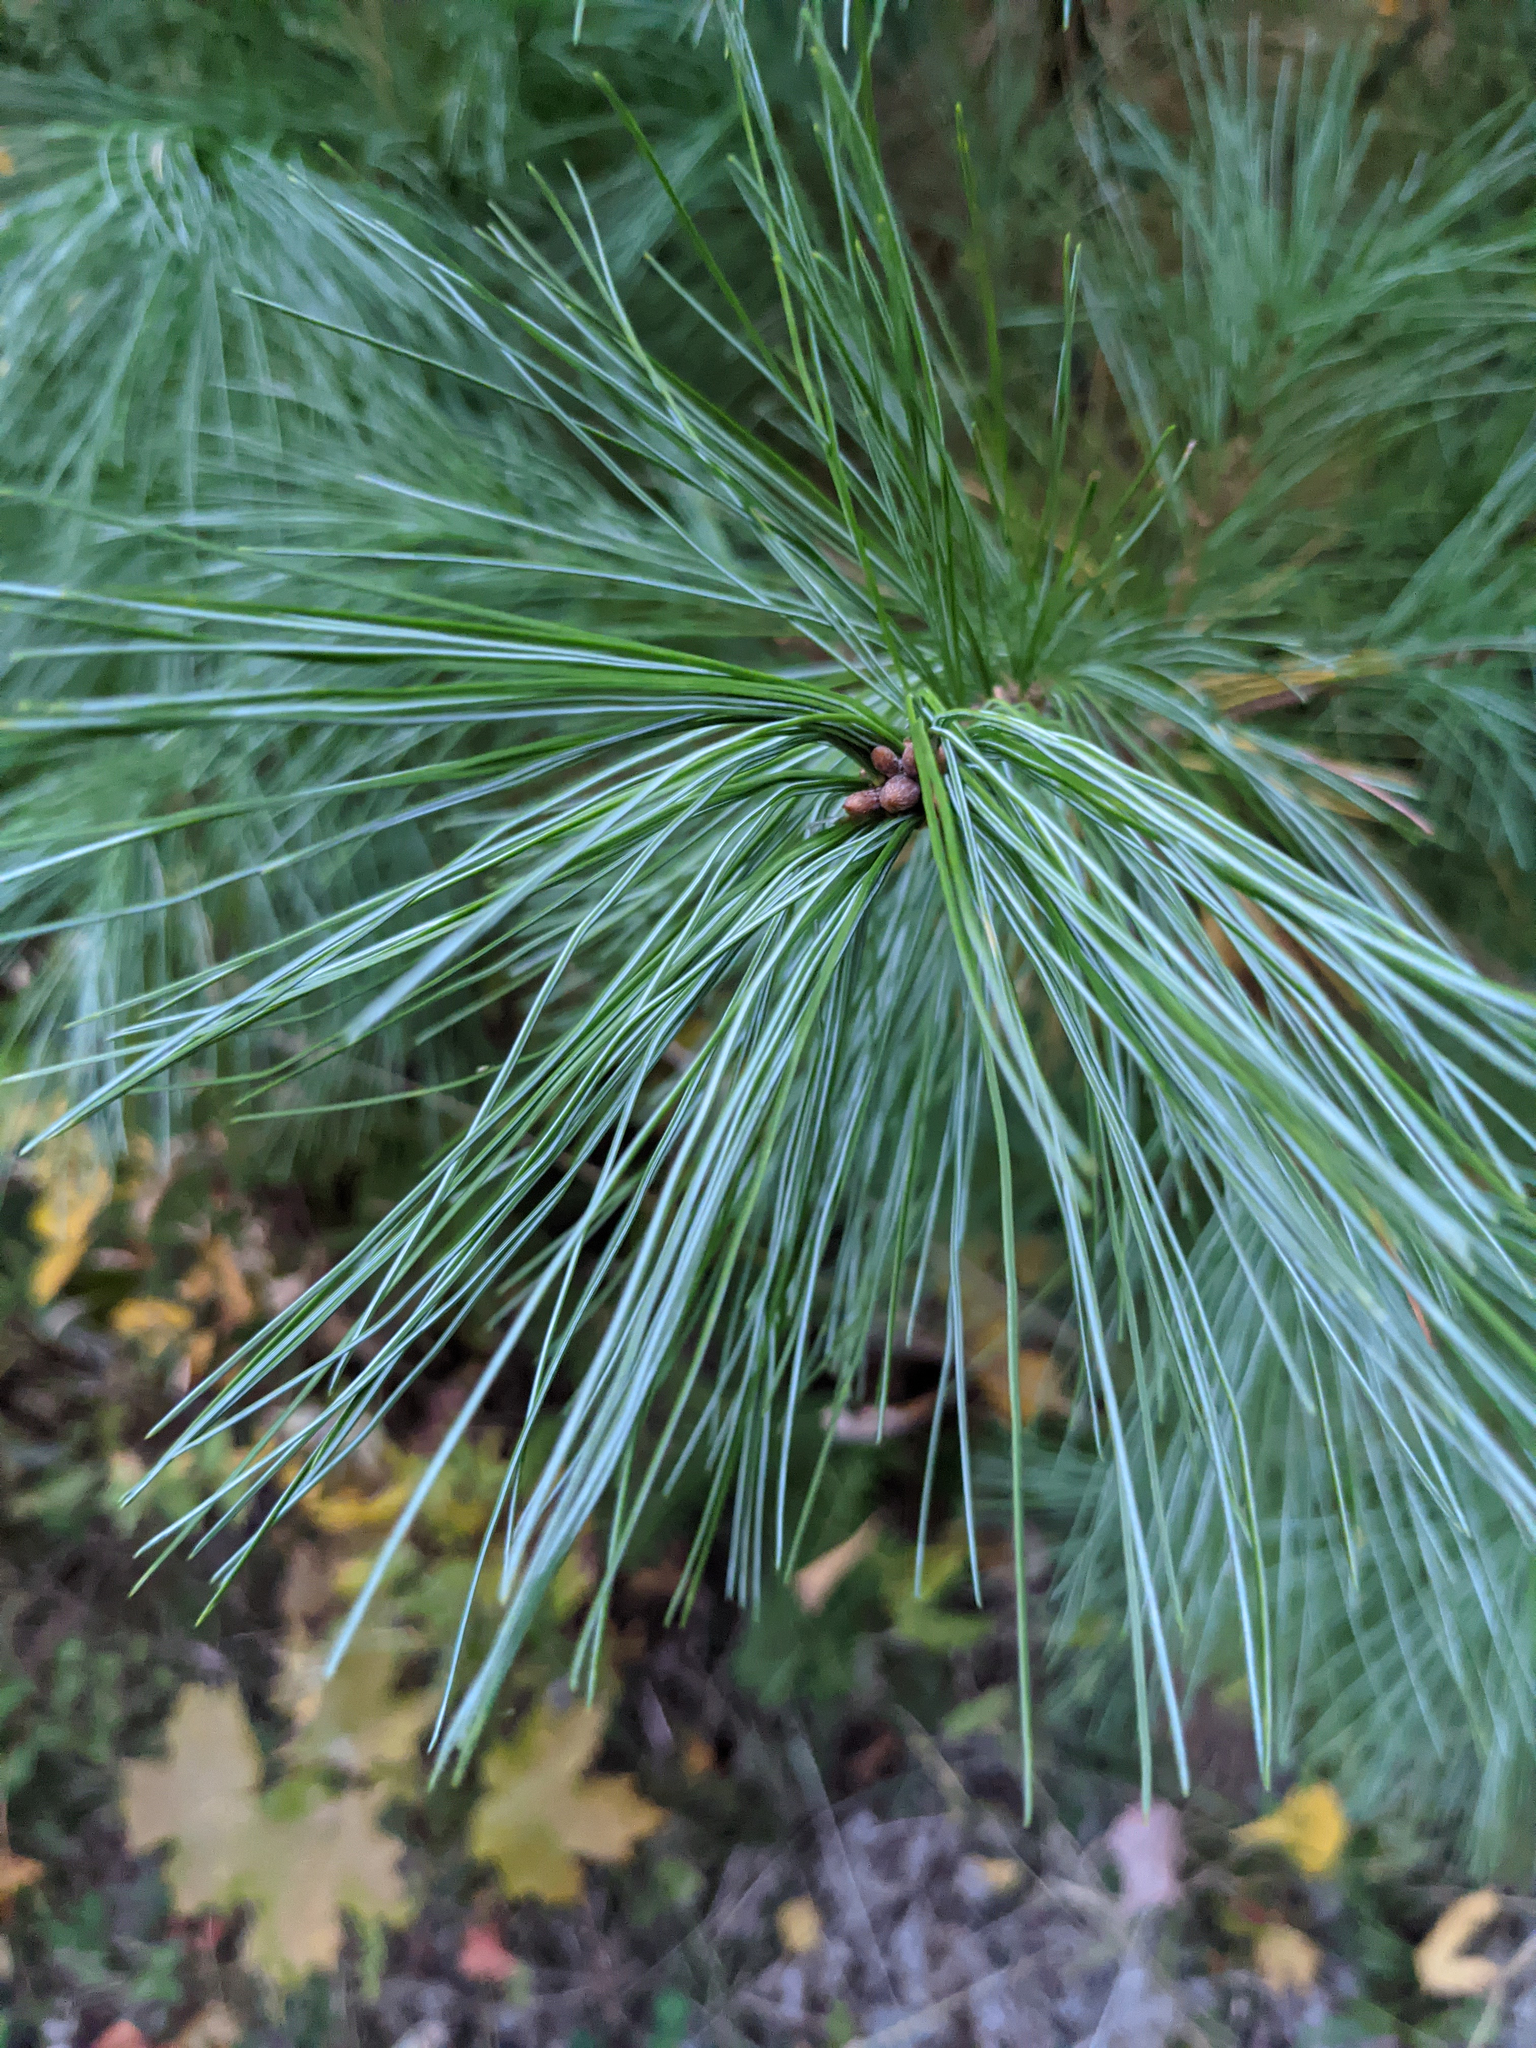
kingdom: Plantae
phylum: Tracheophyta
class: Pinopsida
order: Pinales
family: Pinaceae
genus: Pinus
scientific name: Pinus strobus
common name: Weymouth pine
